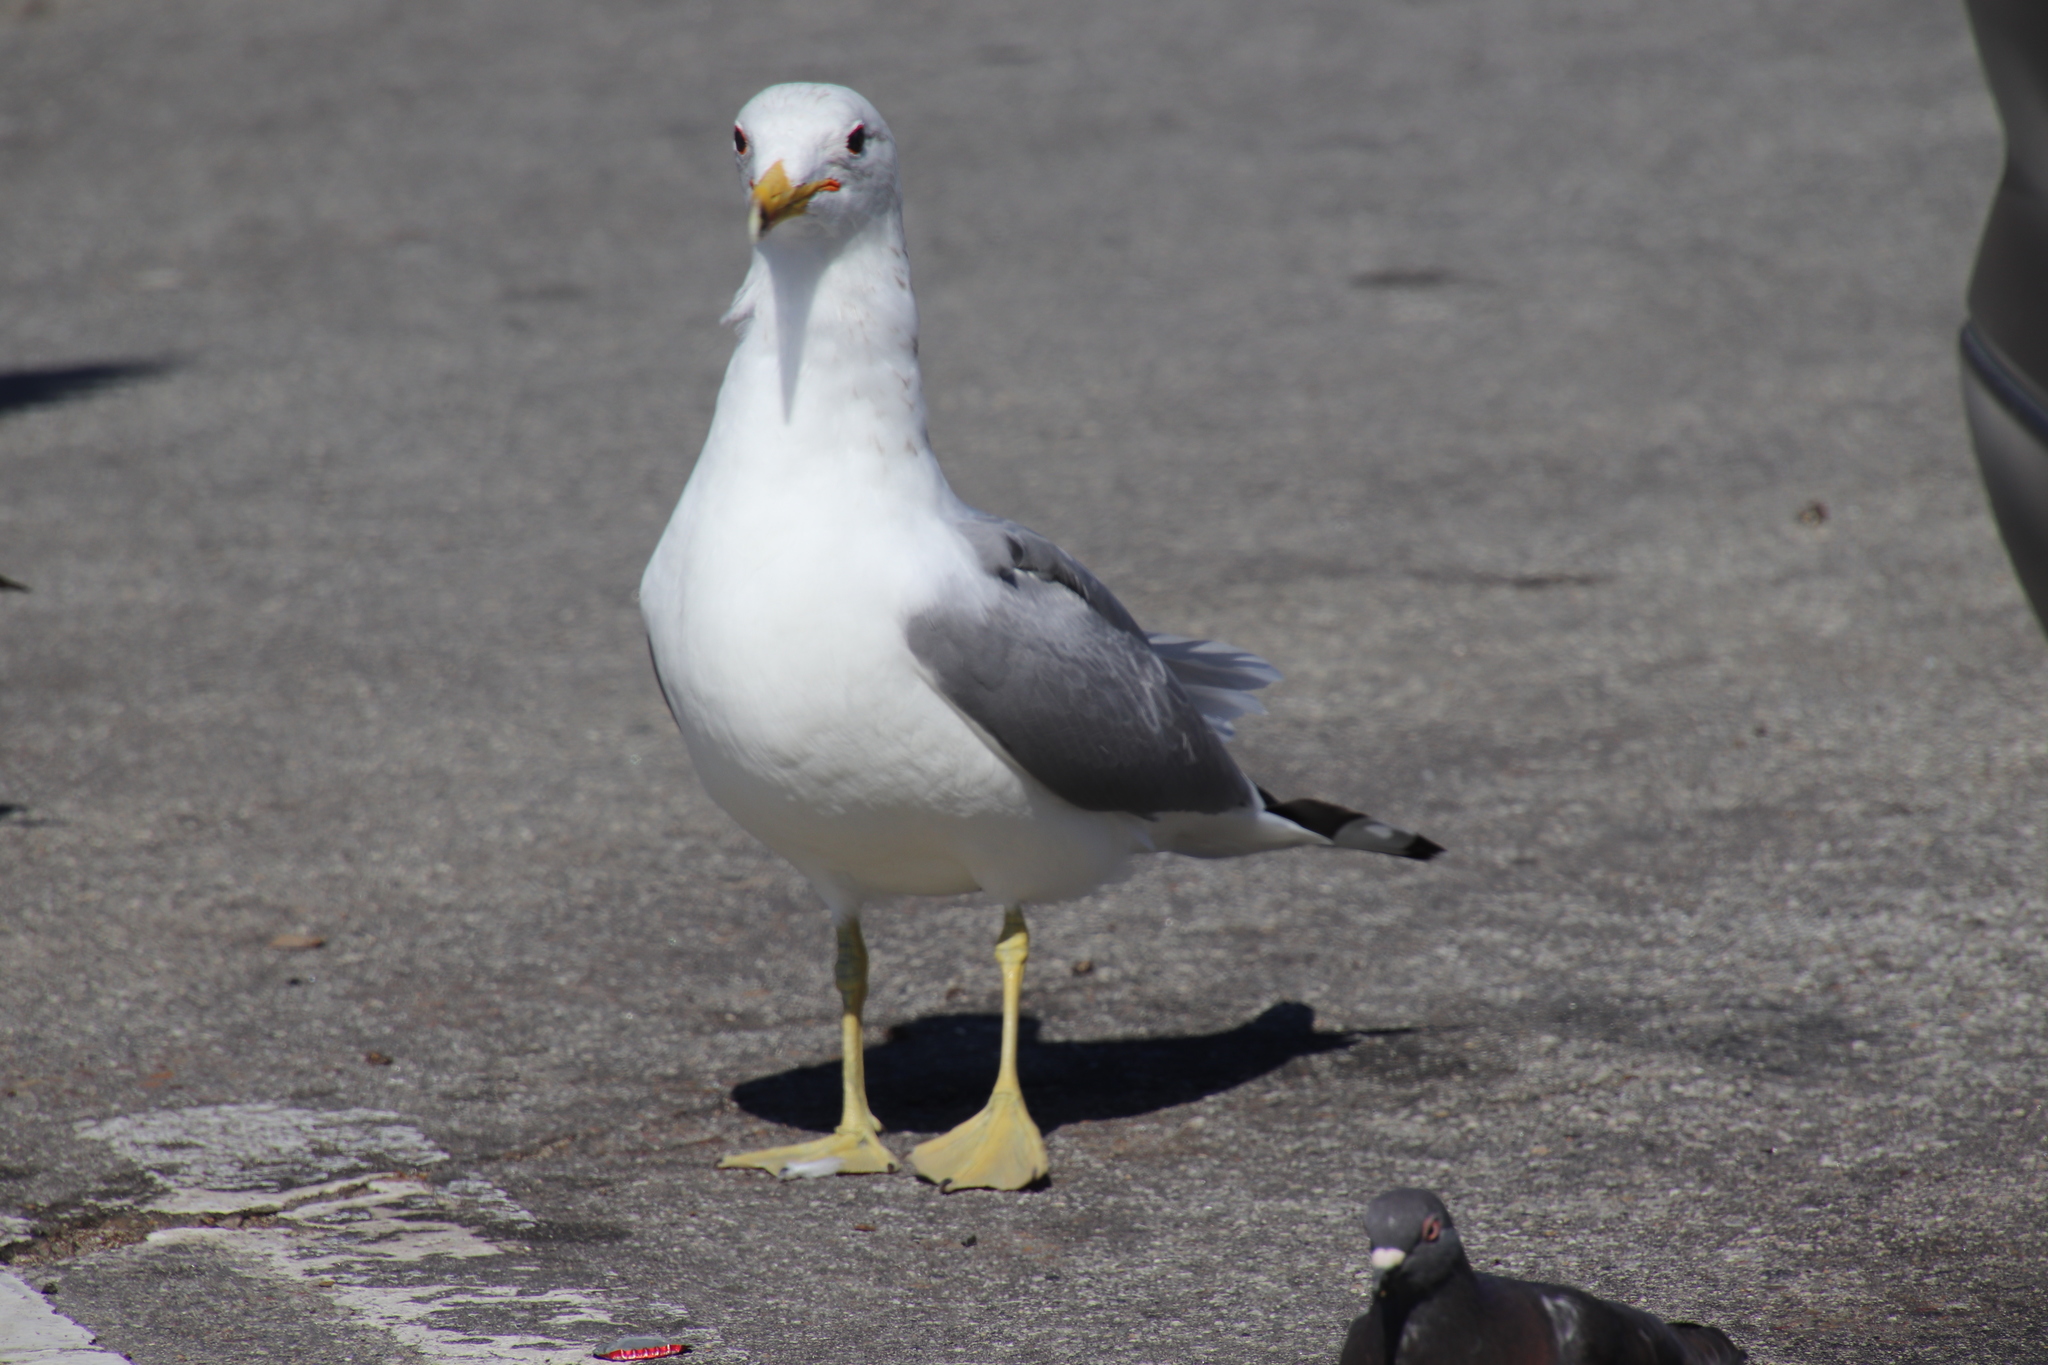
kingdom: Animalia
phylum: Chordata
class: Aves
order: Charadriiformes
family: Laridae
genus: Larus
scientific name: Larus californicus
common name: California gull
